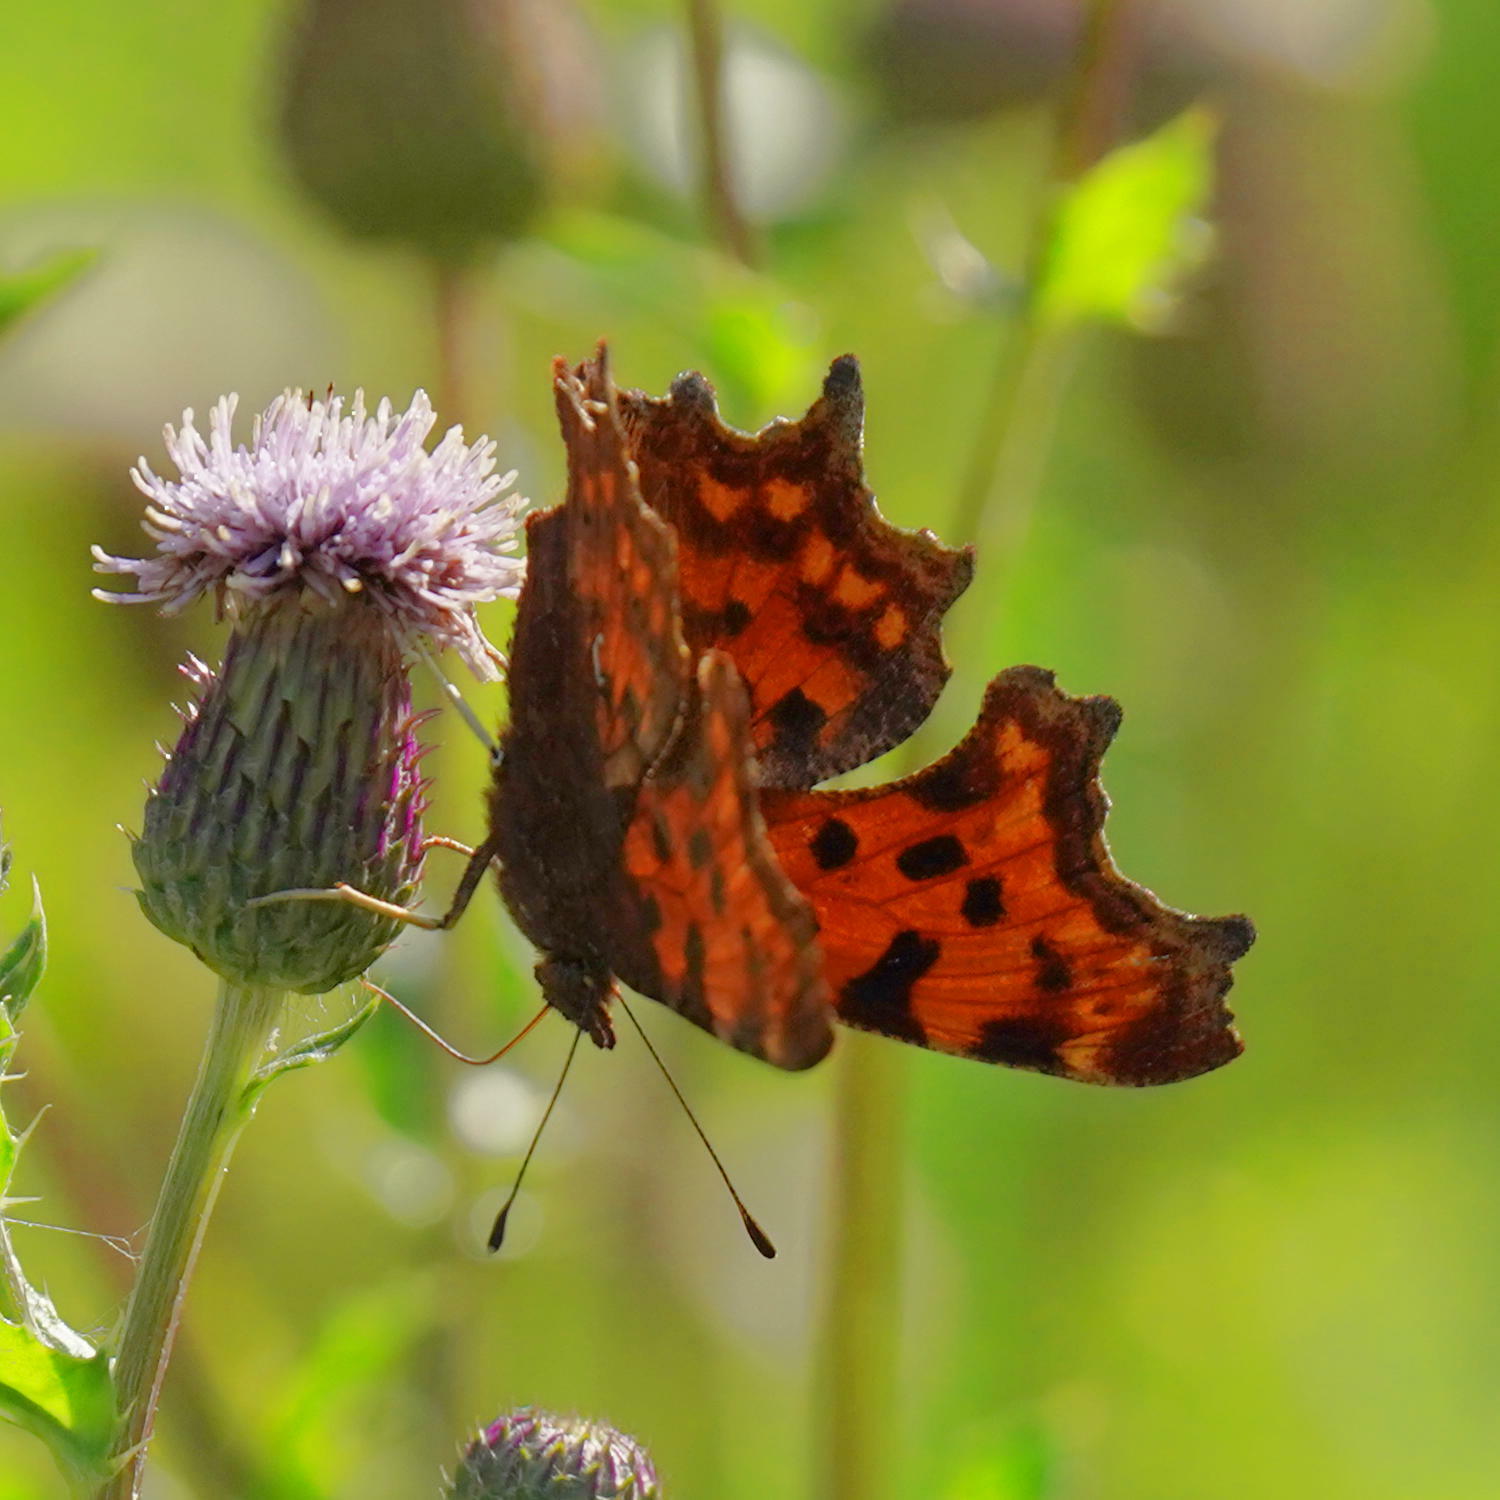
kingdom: Animalia
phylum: Arthropoda
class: Insecta
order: Lepidoptera
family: Nymphalidae
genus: Polygonia
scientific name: Polygonia c-album
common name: Comma
